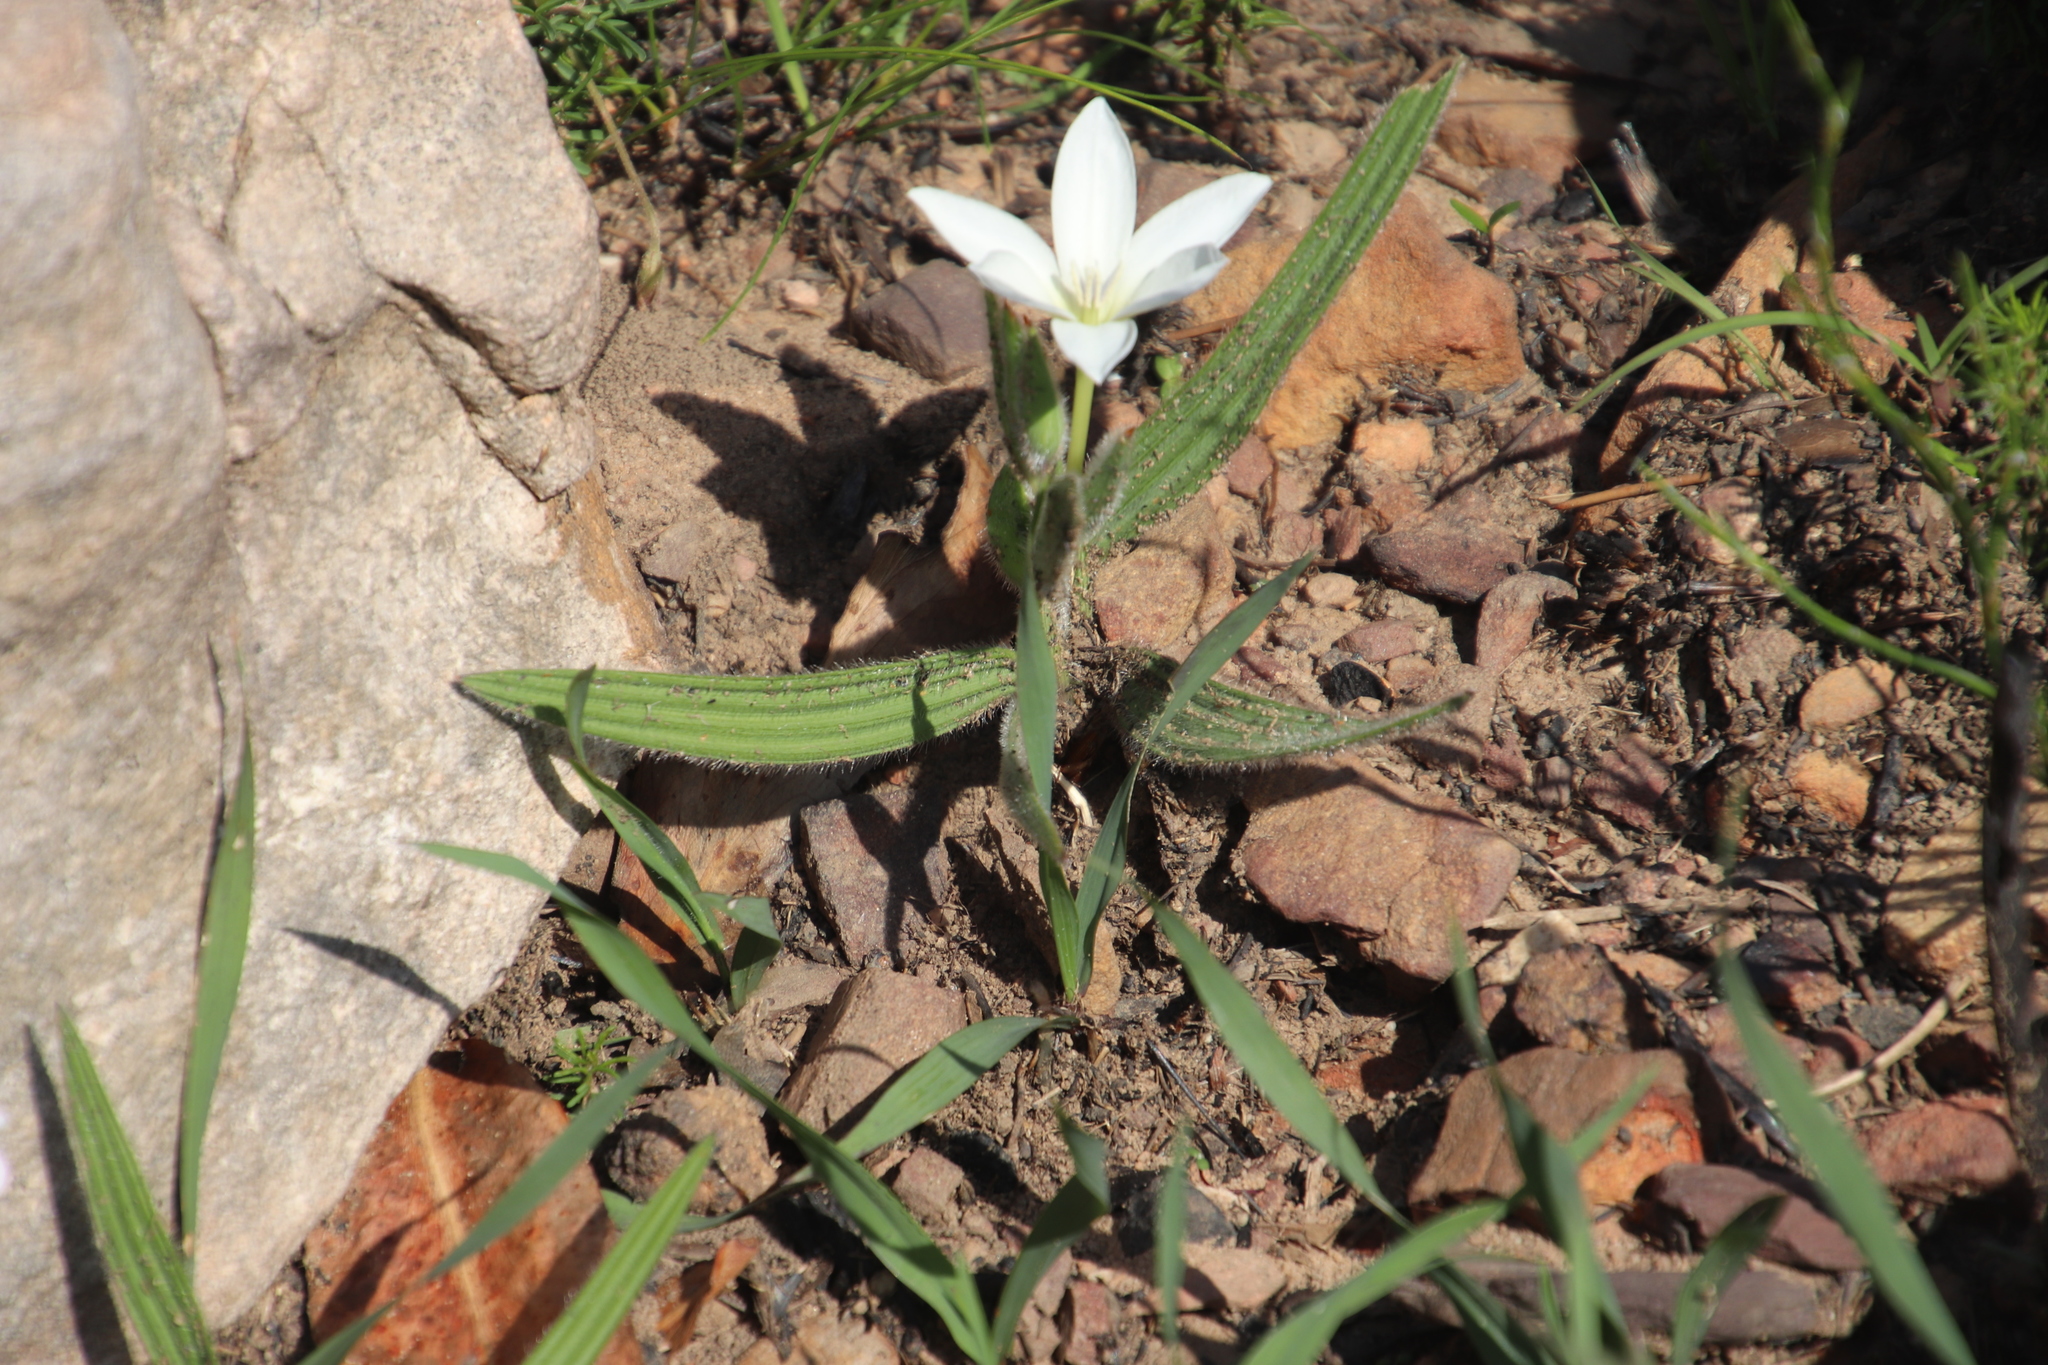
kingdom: Plantae
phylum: Tracheophyta
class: Liliopsida
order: Asparagales
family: Iridaceae
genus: Babiana
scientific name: Babiana villosula
